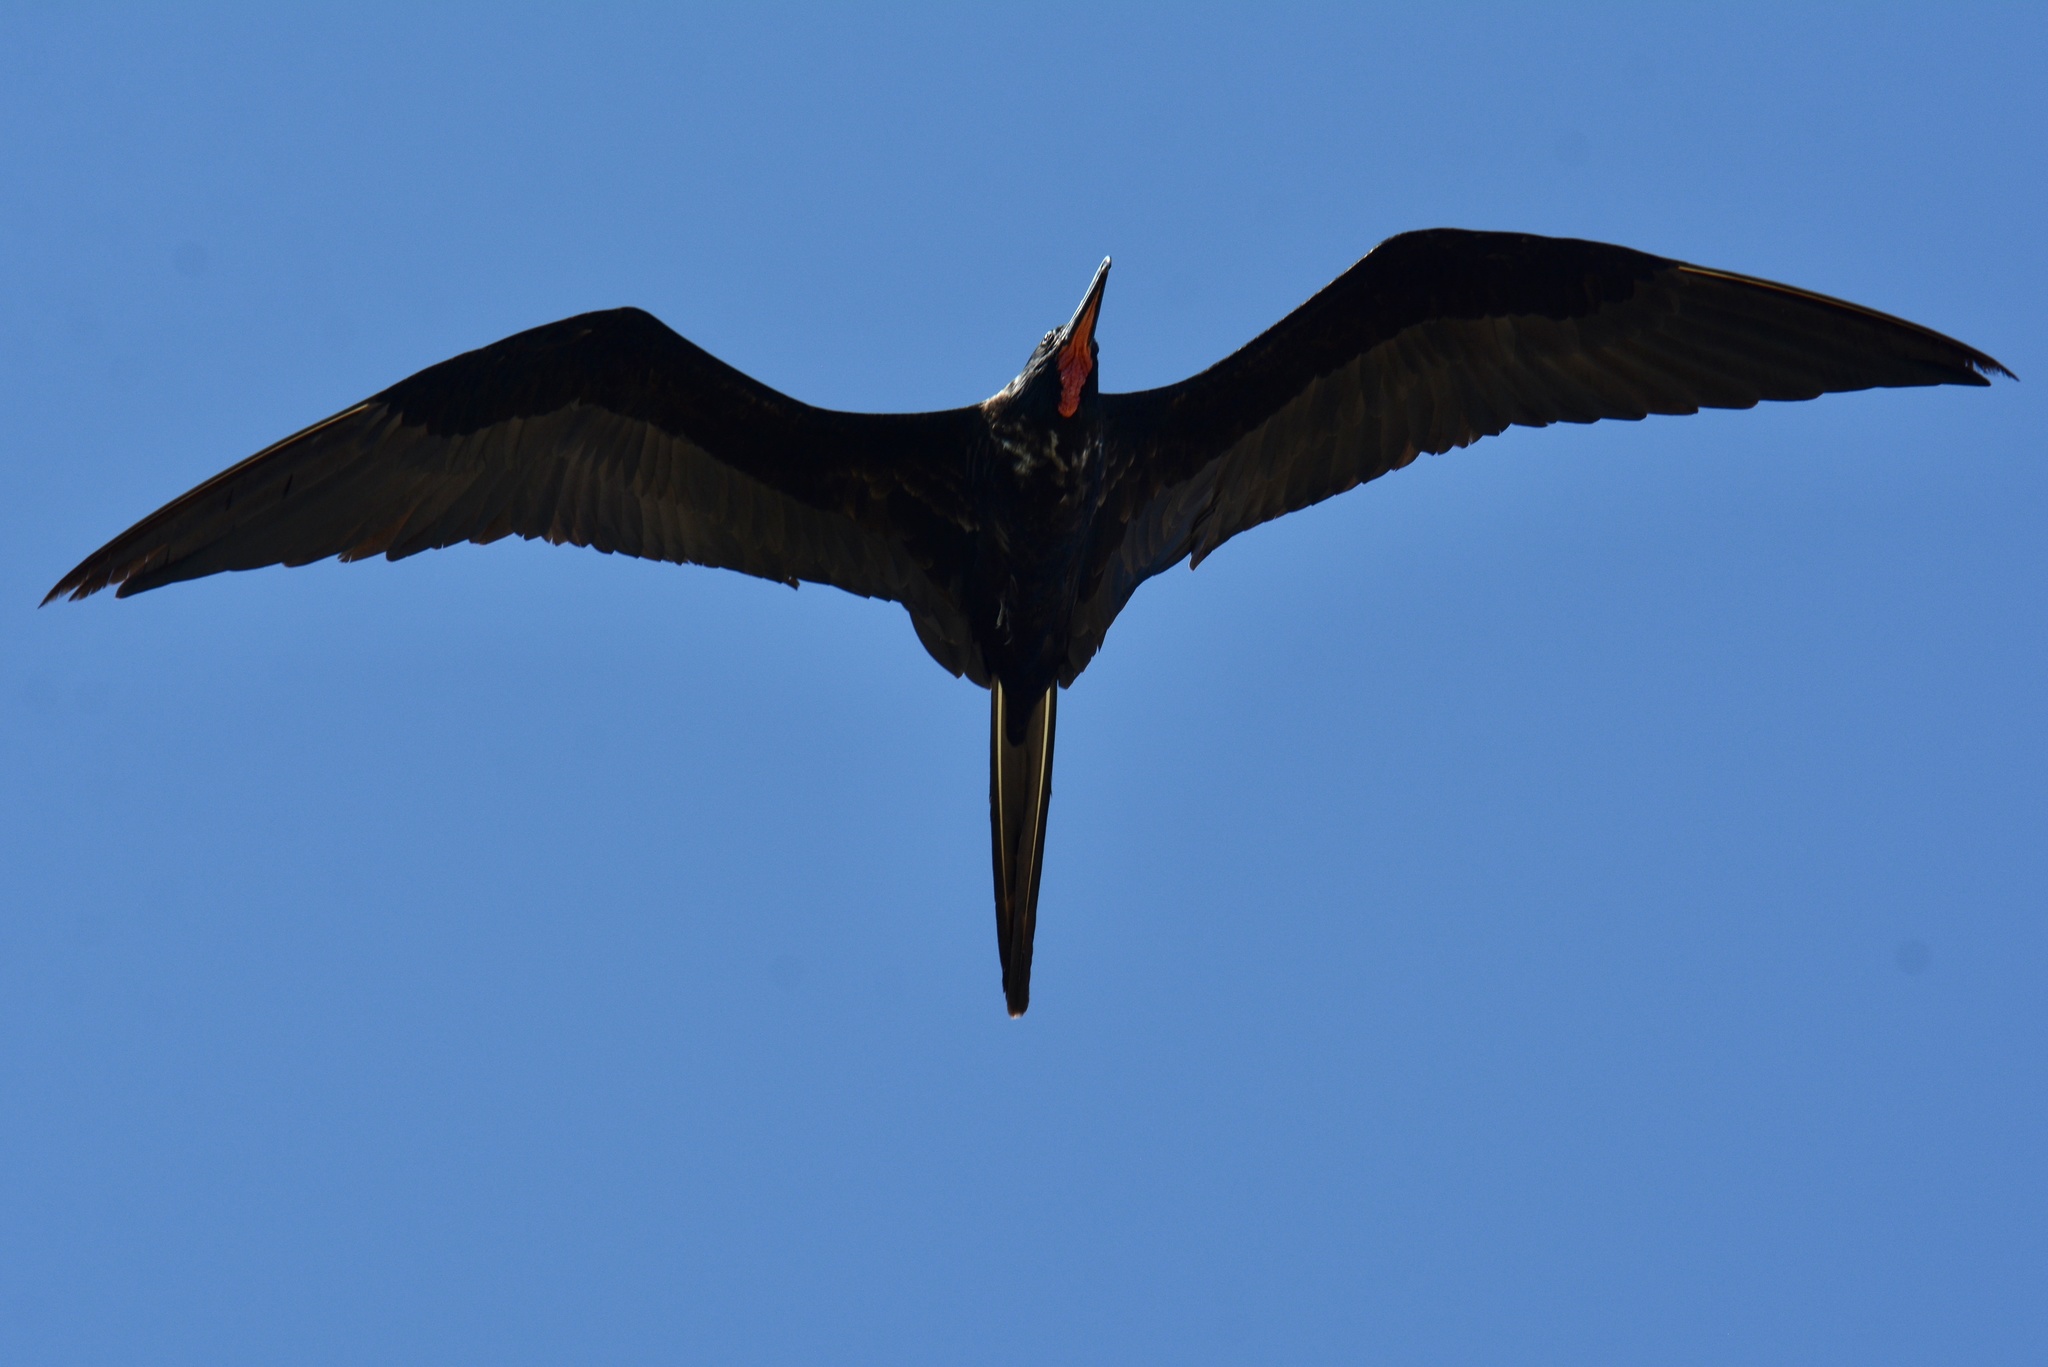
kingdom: Animalia
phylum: Chordata
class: Aves
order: Suliformes
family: Fregatidae
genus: Fregata
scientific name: Fregata magnificens
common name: Magnificent frigatebird
